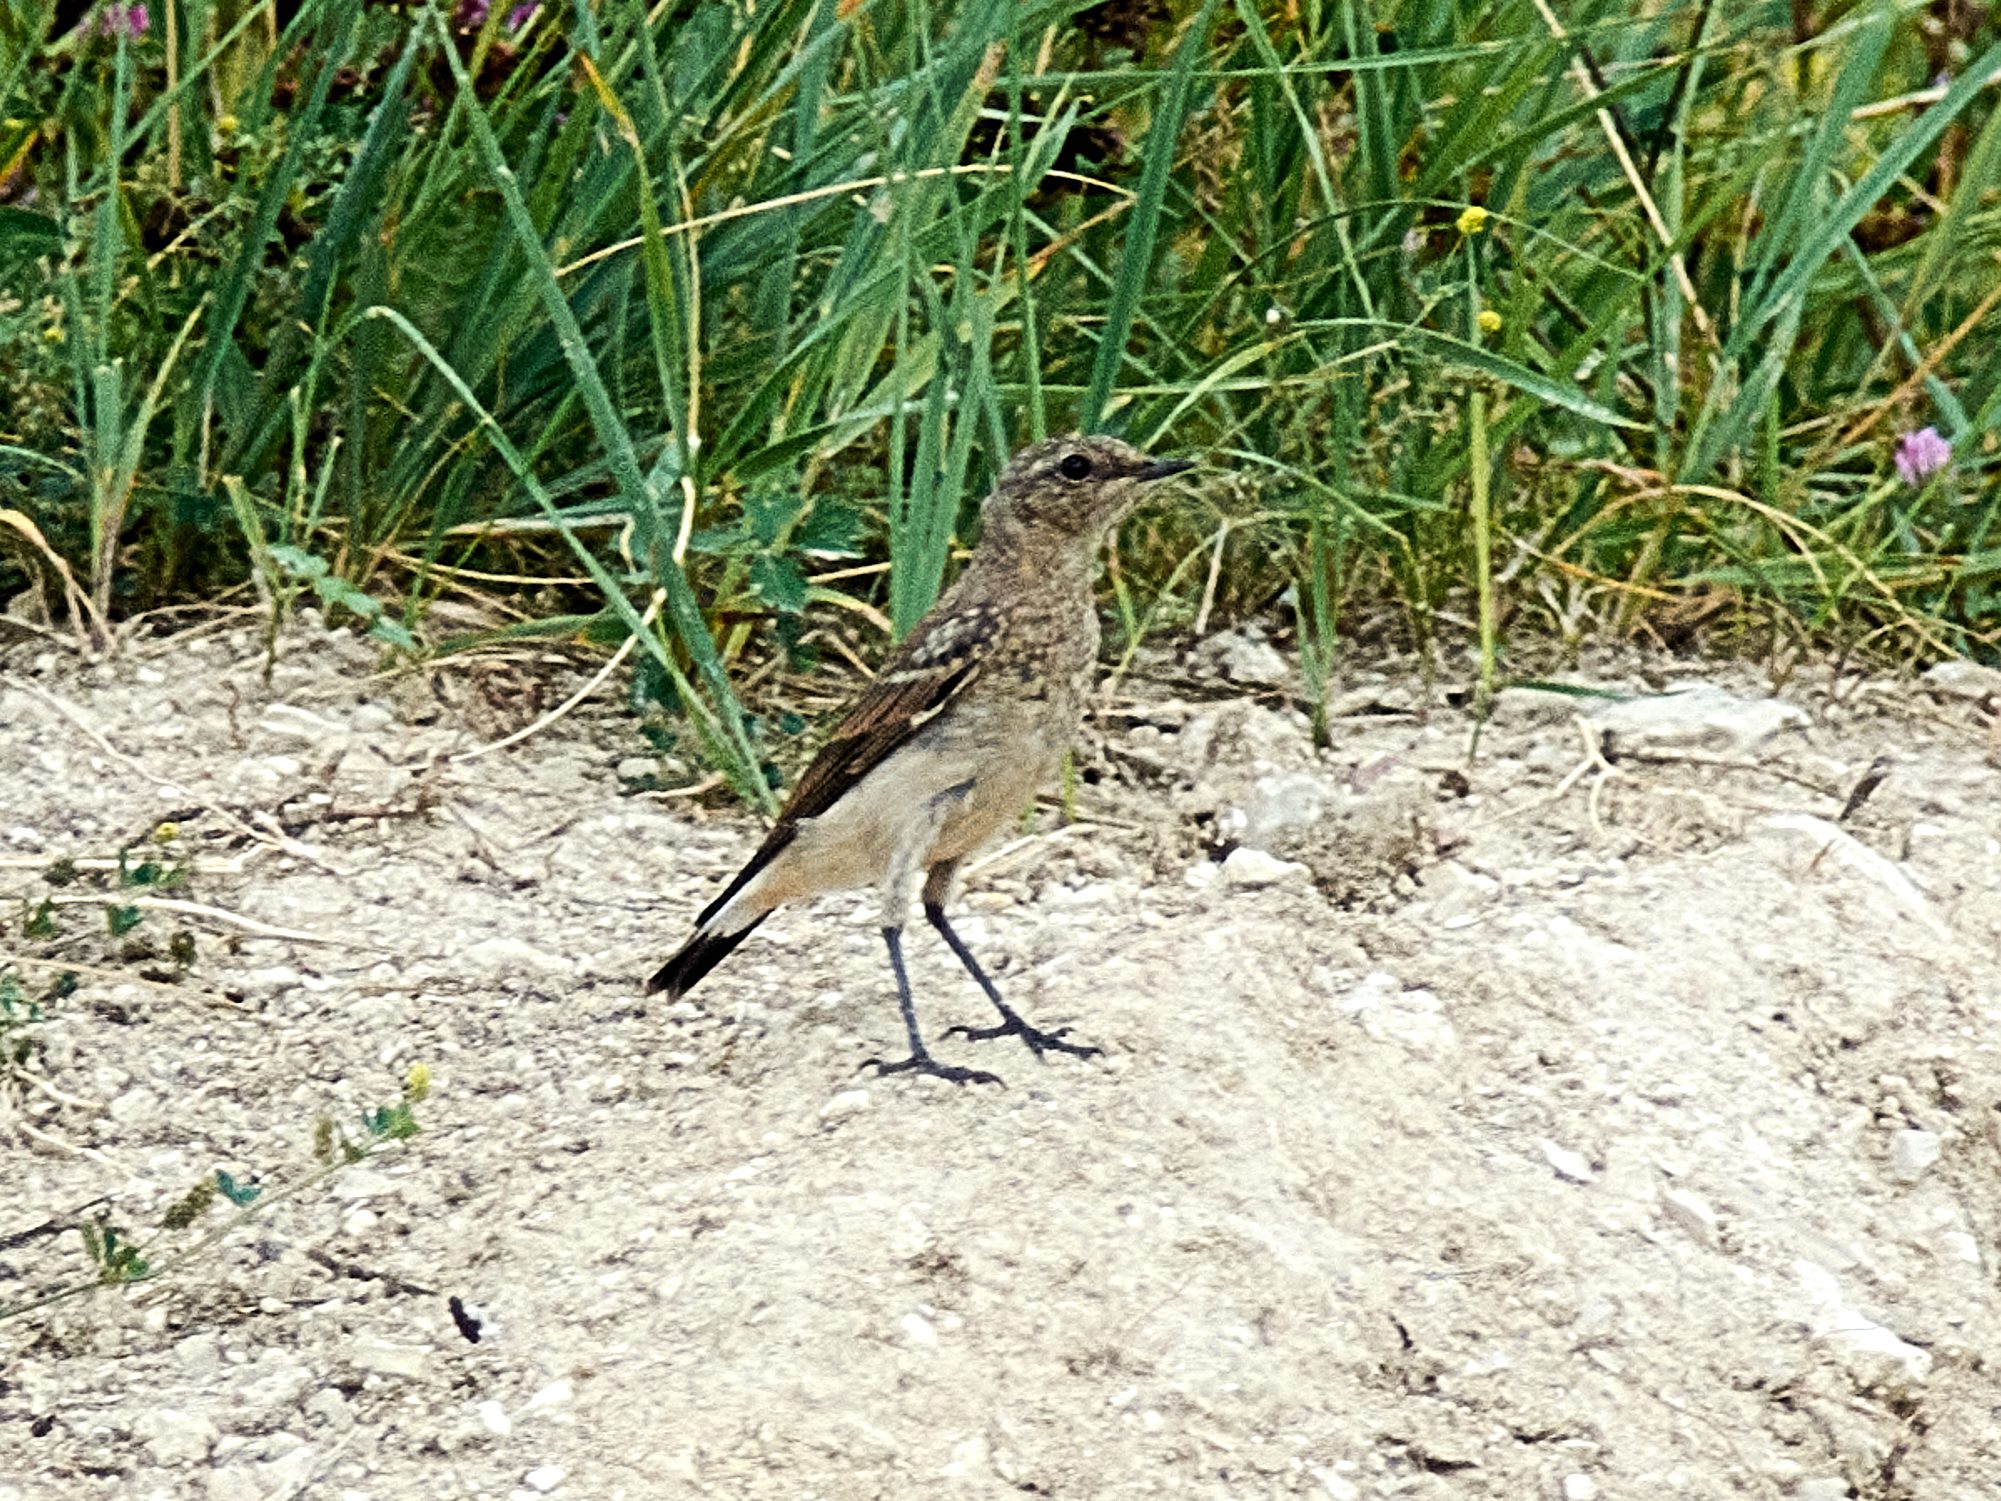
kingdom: Animalia
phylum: Chordata
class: Aves
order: Passeriformes
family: Muscicapidae
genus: Oenanthe
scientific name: Oenanthe oenanthe
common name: Northern wheatear
